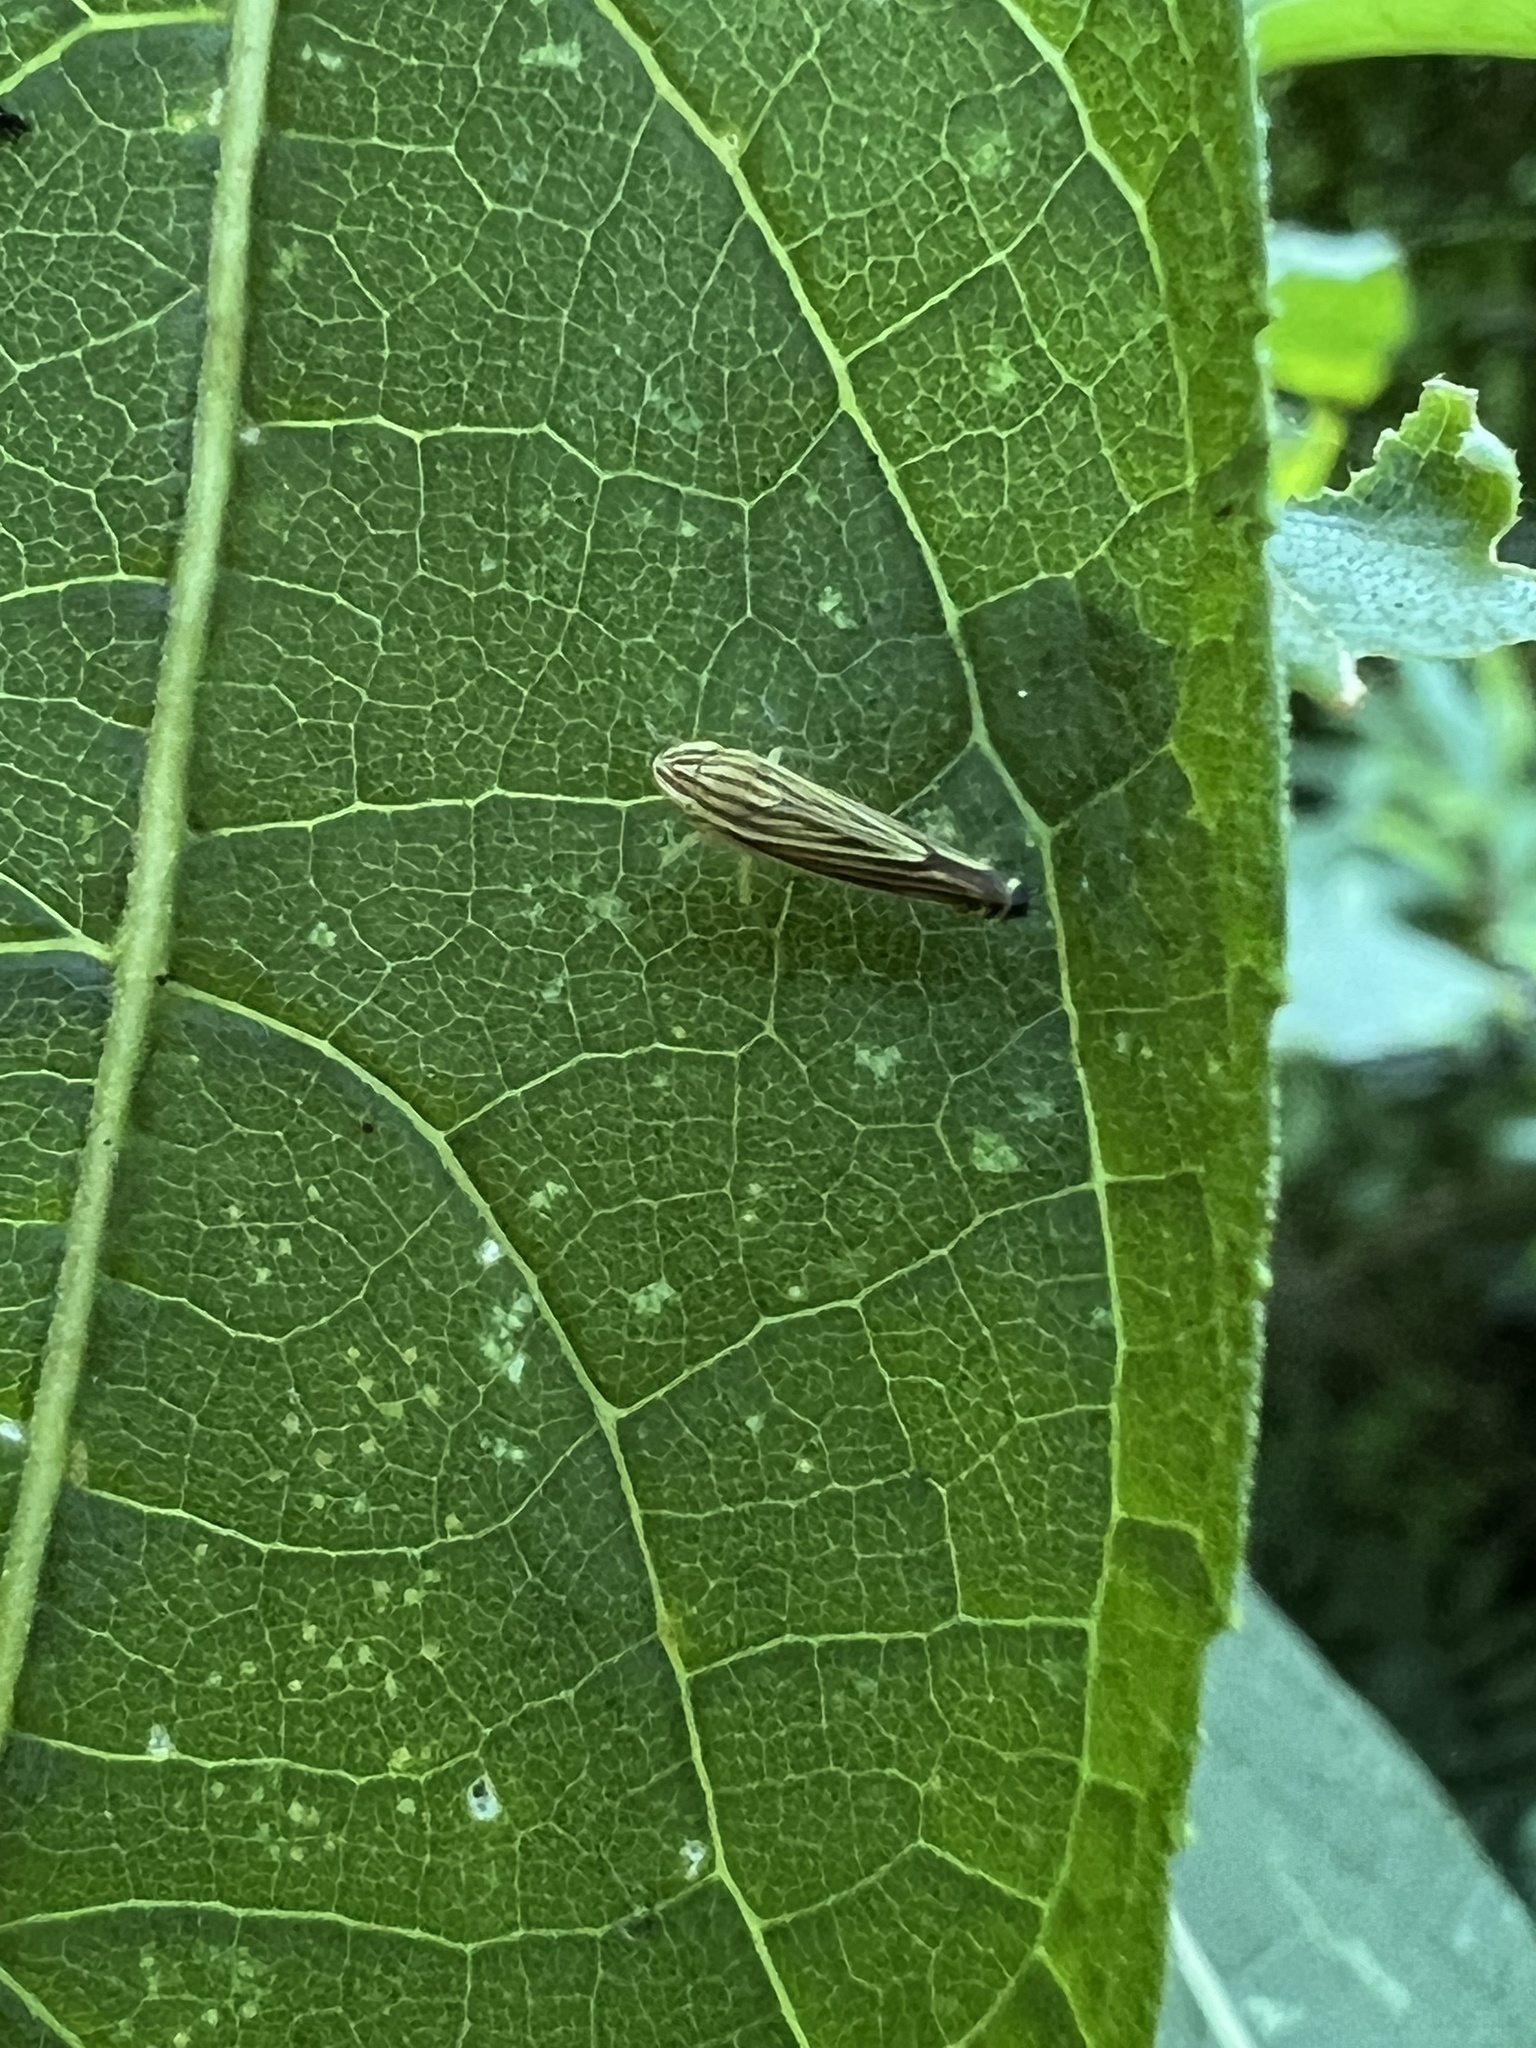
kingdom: Animalia
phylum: Arthropoda
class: Insecta
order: Hemiptera
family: Cicadellidae
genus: Sibovia
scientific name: Sibovia occatoria
